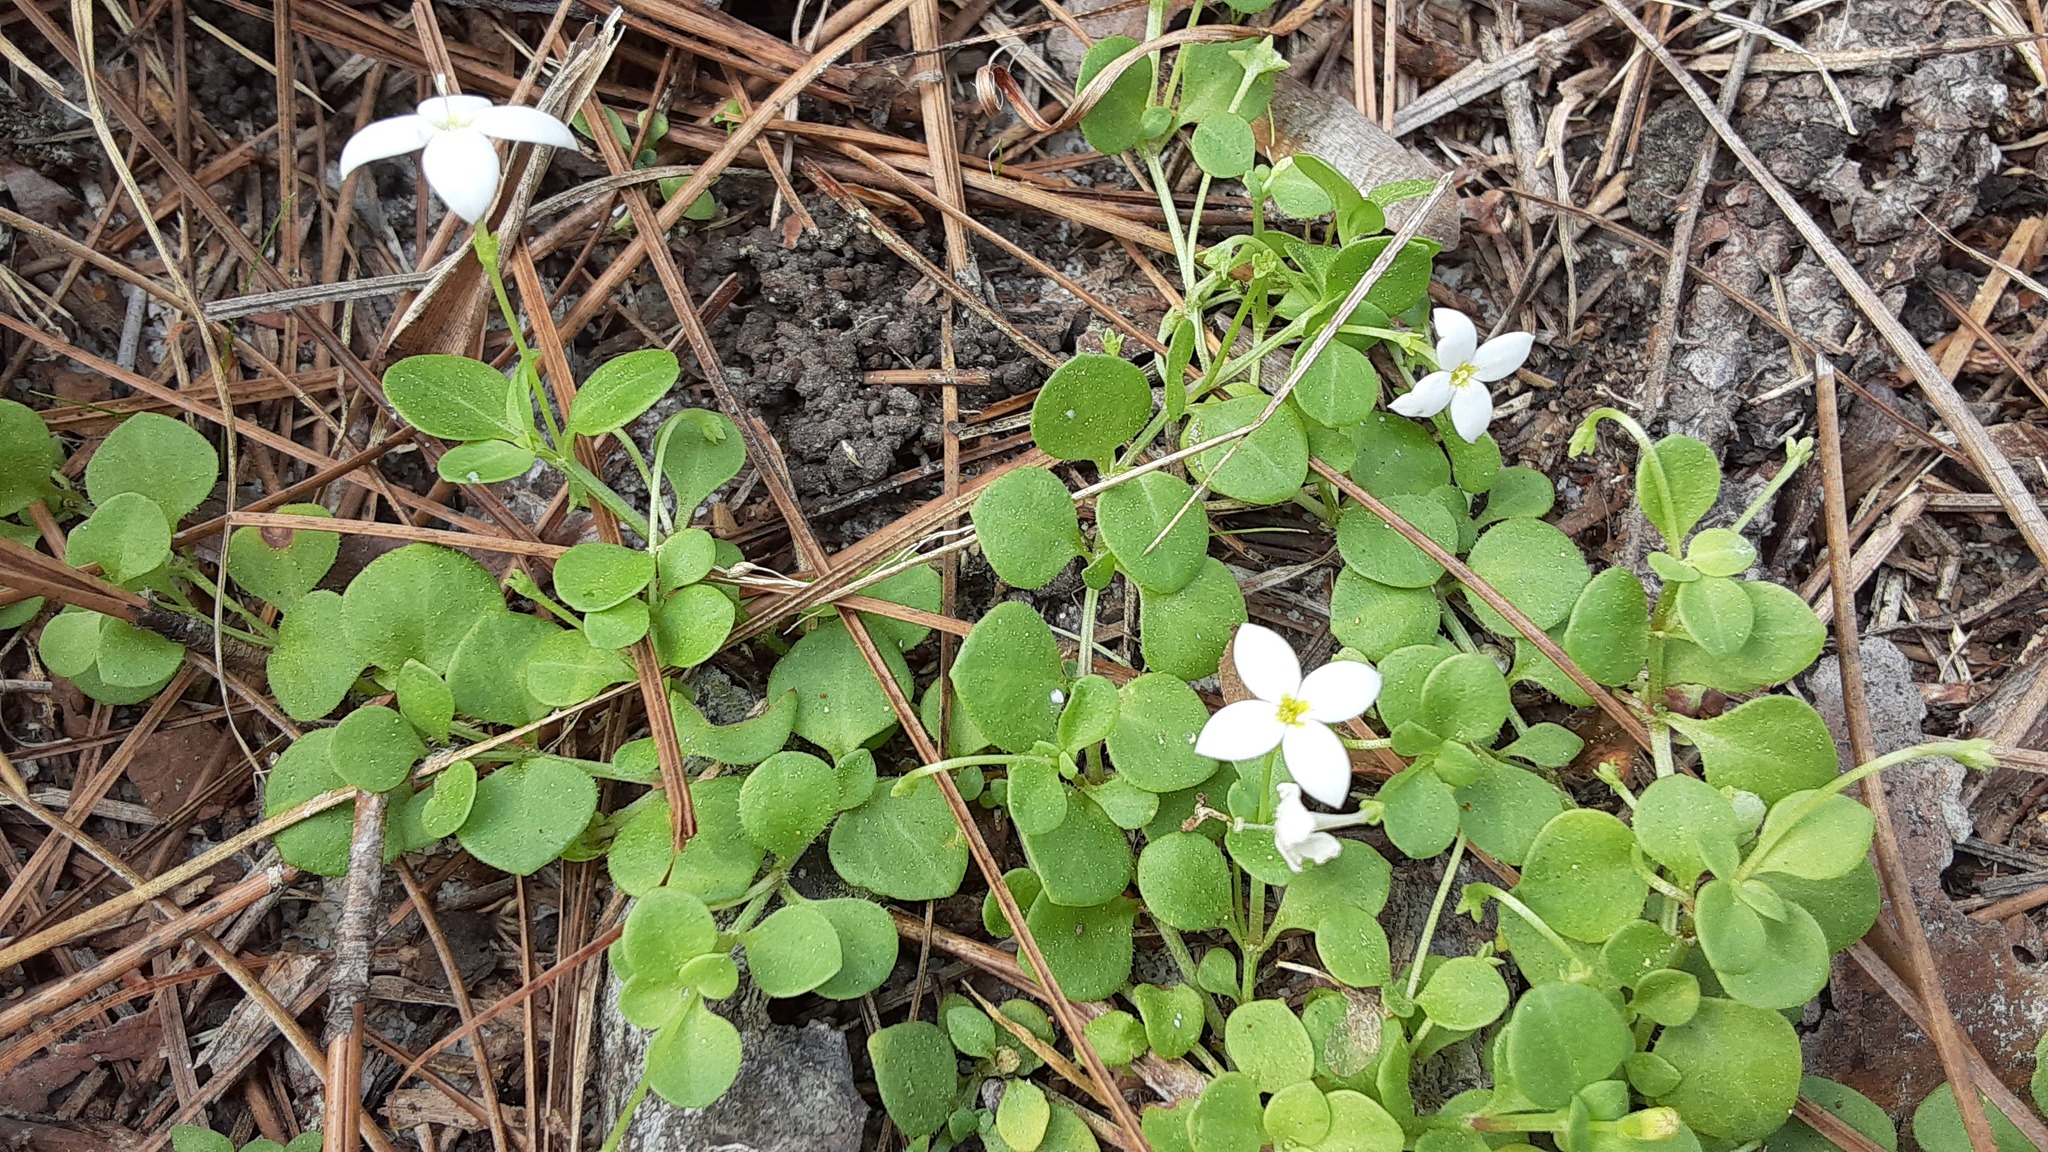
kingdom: Plantae
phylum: Tracheophyta
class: Magnoliopsida
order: Gentianales
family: Rubiaceae
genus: Houstonia
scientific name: Houstonia procumbens
